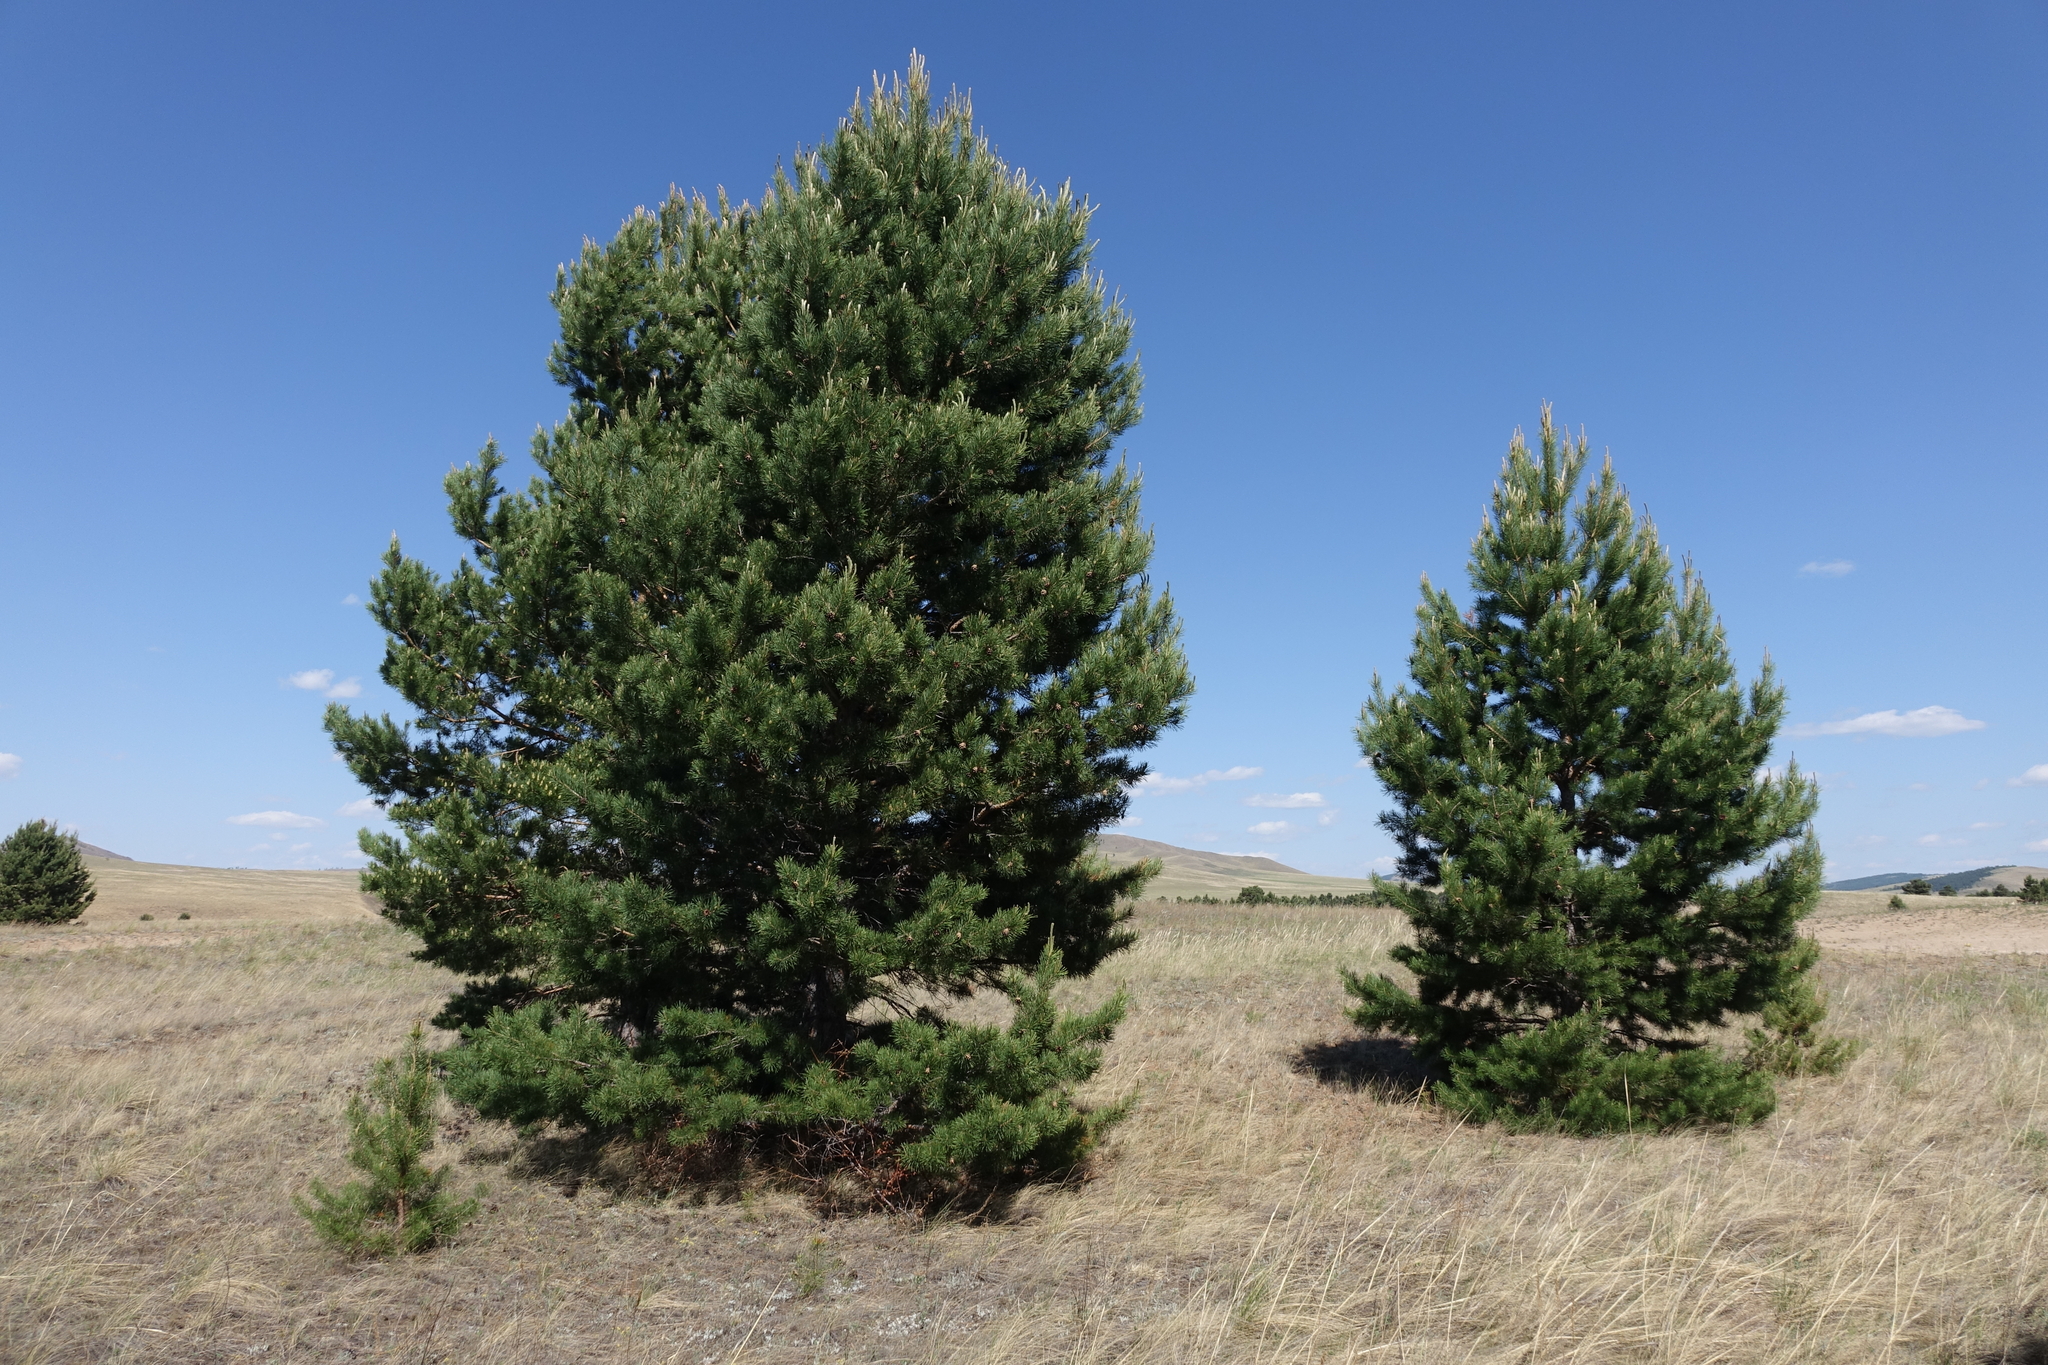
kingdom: Plantae
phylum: Tracheophyta
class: Pinopsida
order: Pinales
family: Pinaceae
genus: Pinus
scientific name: Pinus sylvestris
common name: Scots pine
